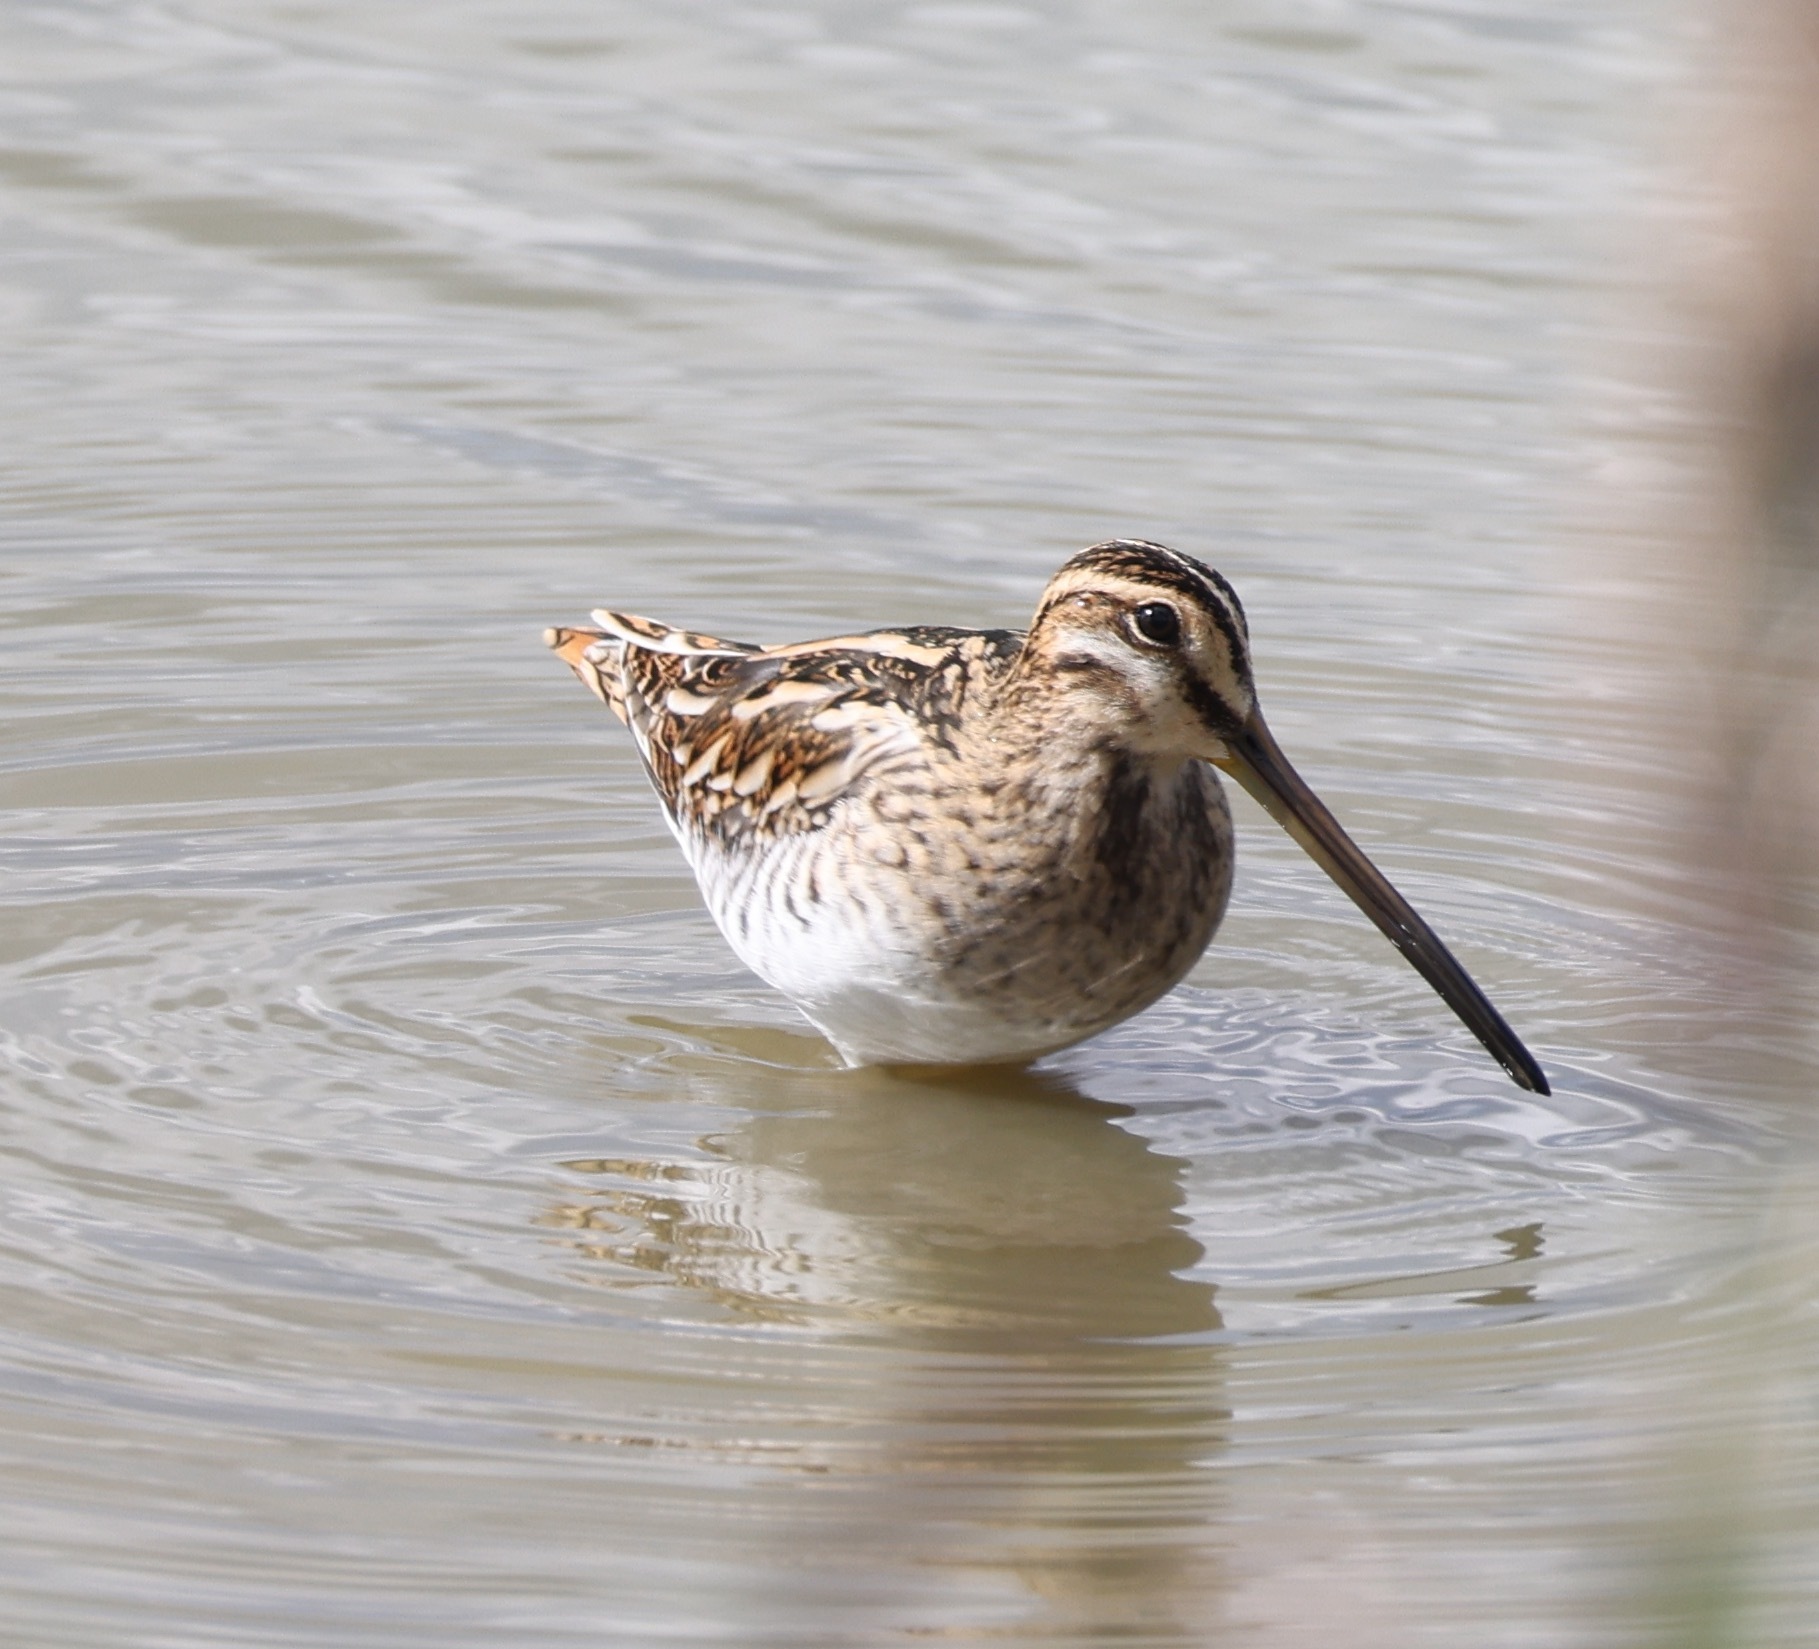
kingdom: Animalia
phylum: Chordata
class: Aves
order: Charadriiformes
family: Scolopacidae
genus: Gallinago
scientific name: Gallinago gallinago
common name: Common snipe
